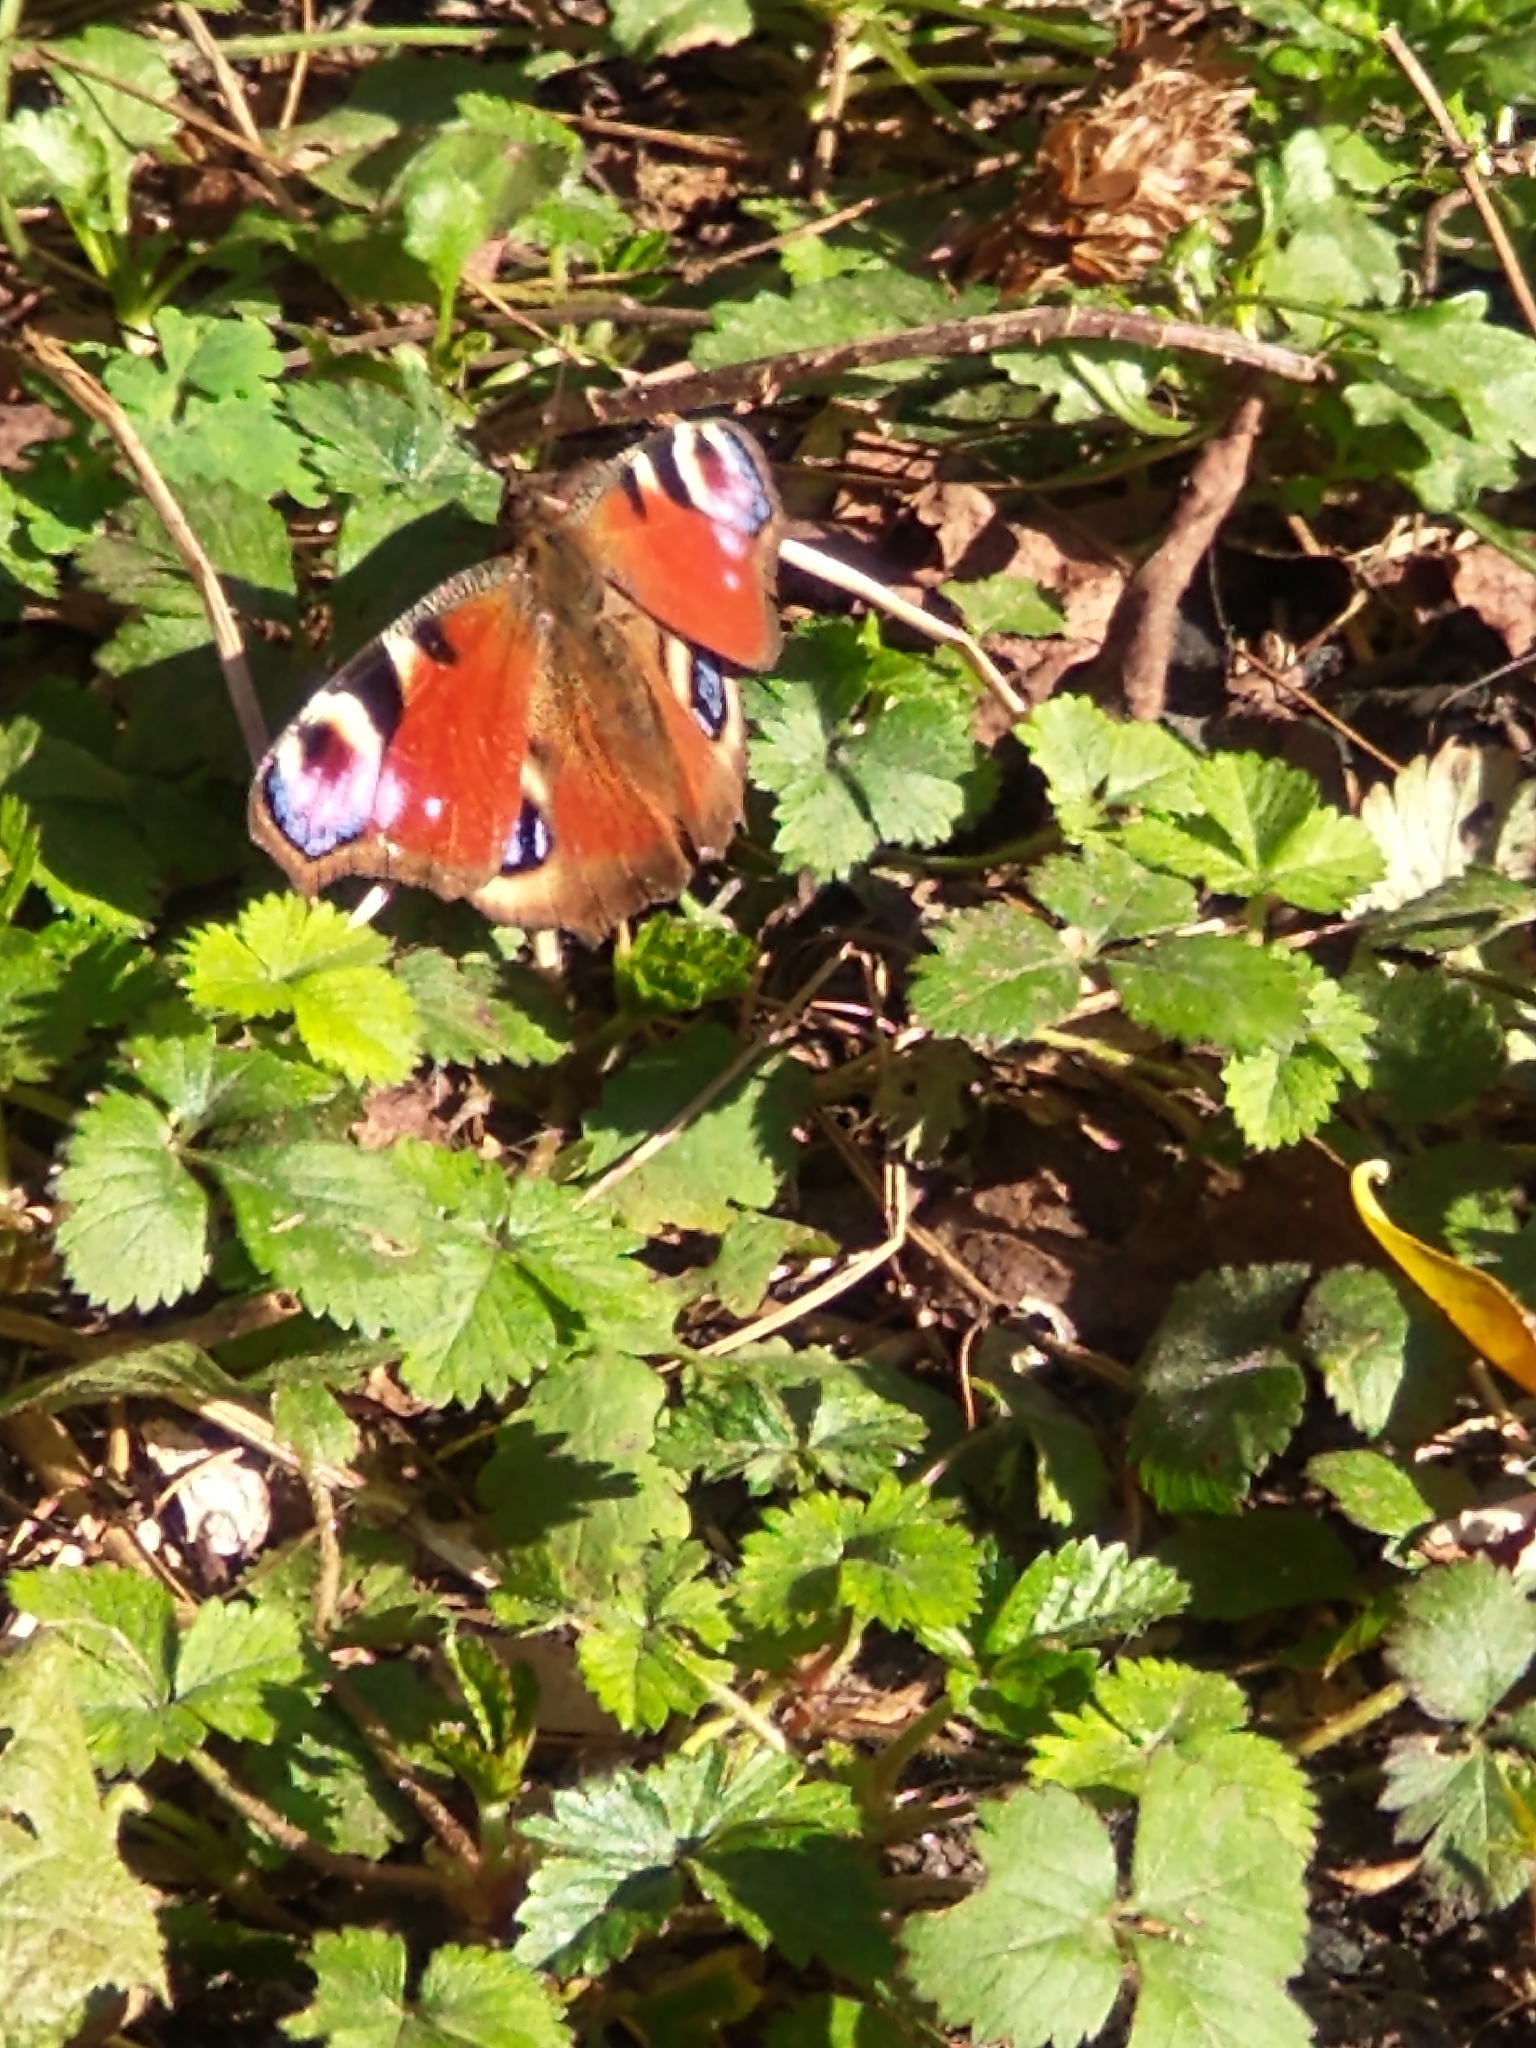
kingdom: Animalia
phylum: Arthropoda
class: Insecta
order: Lepidoptera
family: Nymphalidae
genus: Aglais
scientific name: Aglais io
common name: Peacock
